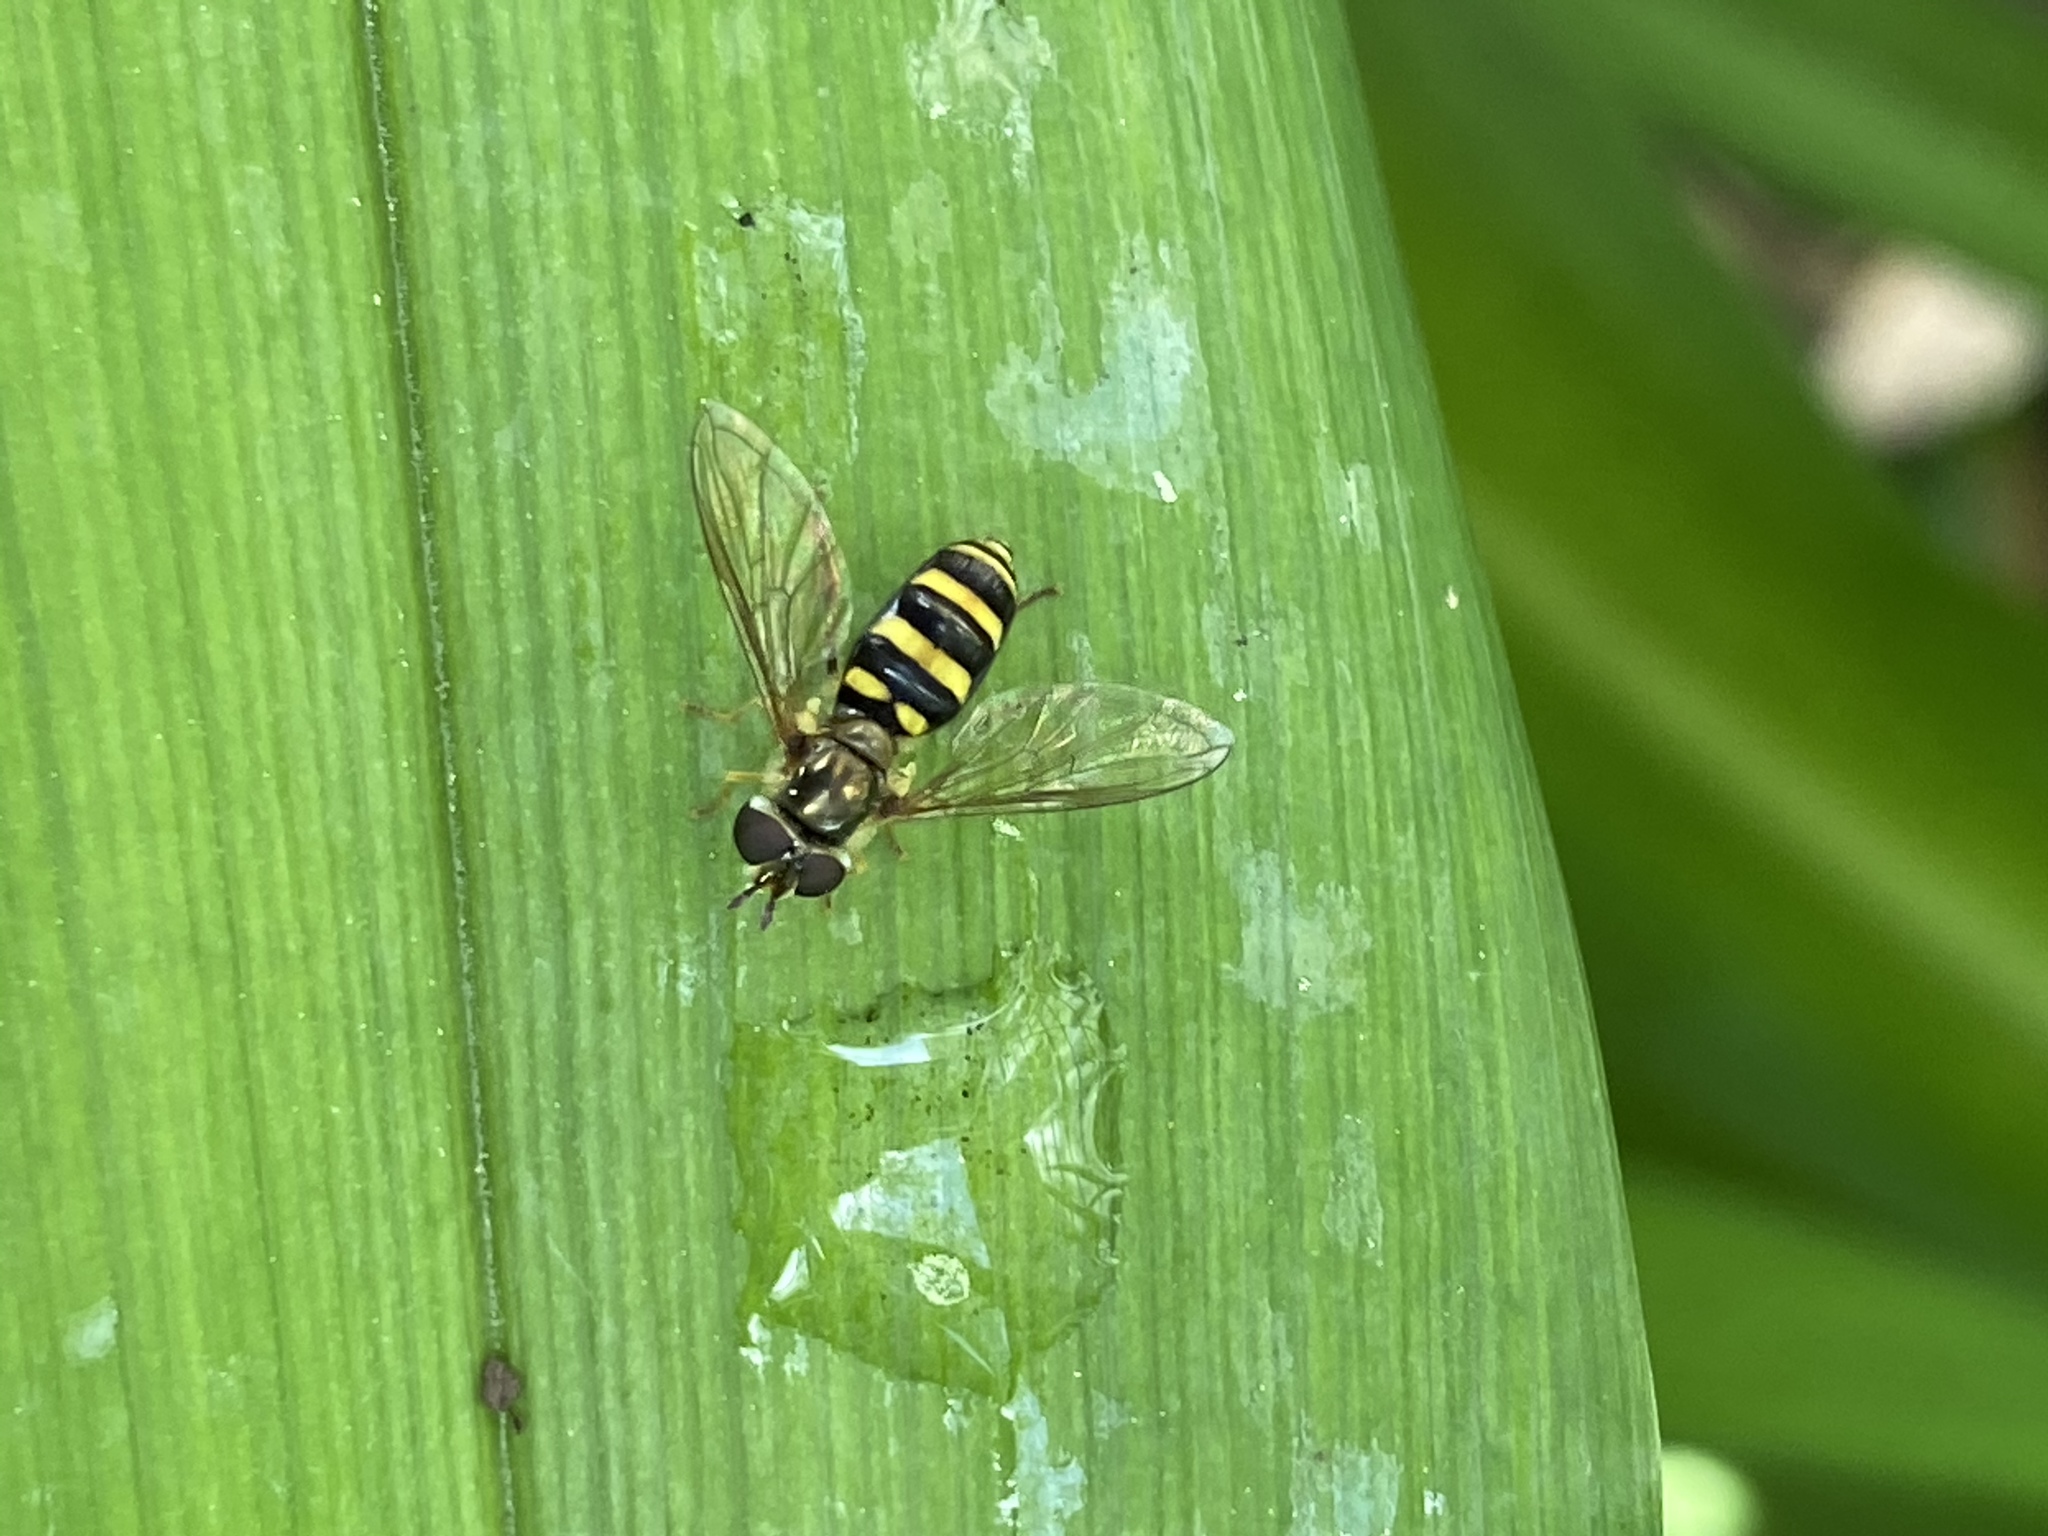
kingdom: Animalia
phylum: Arthropoda
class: Insecta
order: Diptera
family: Syrphidae
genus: Eupeodes
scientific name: Eupeodes
